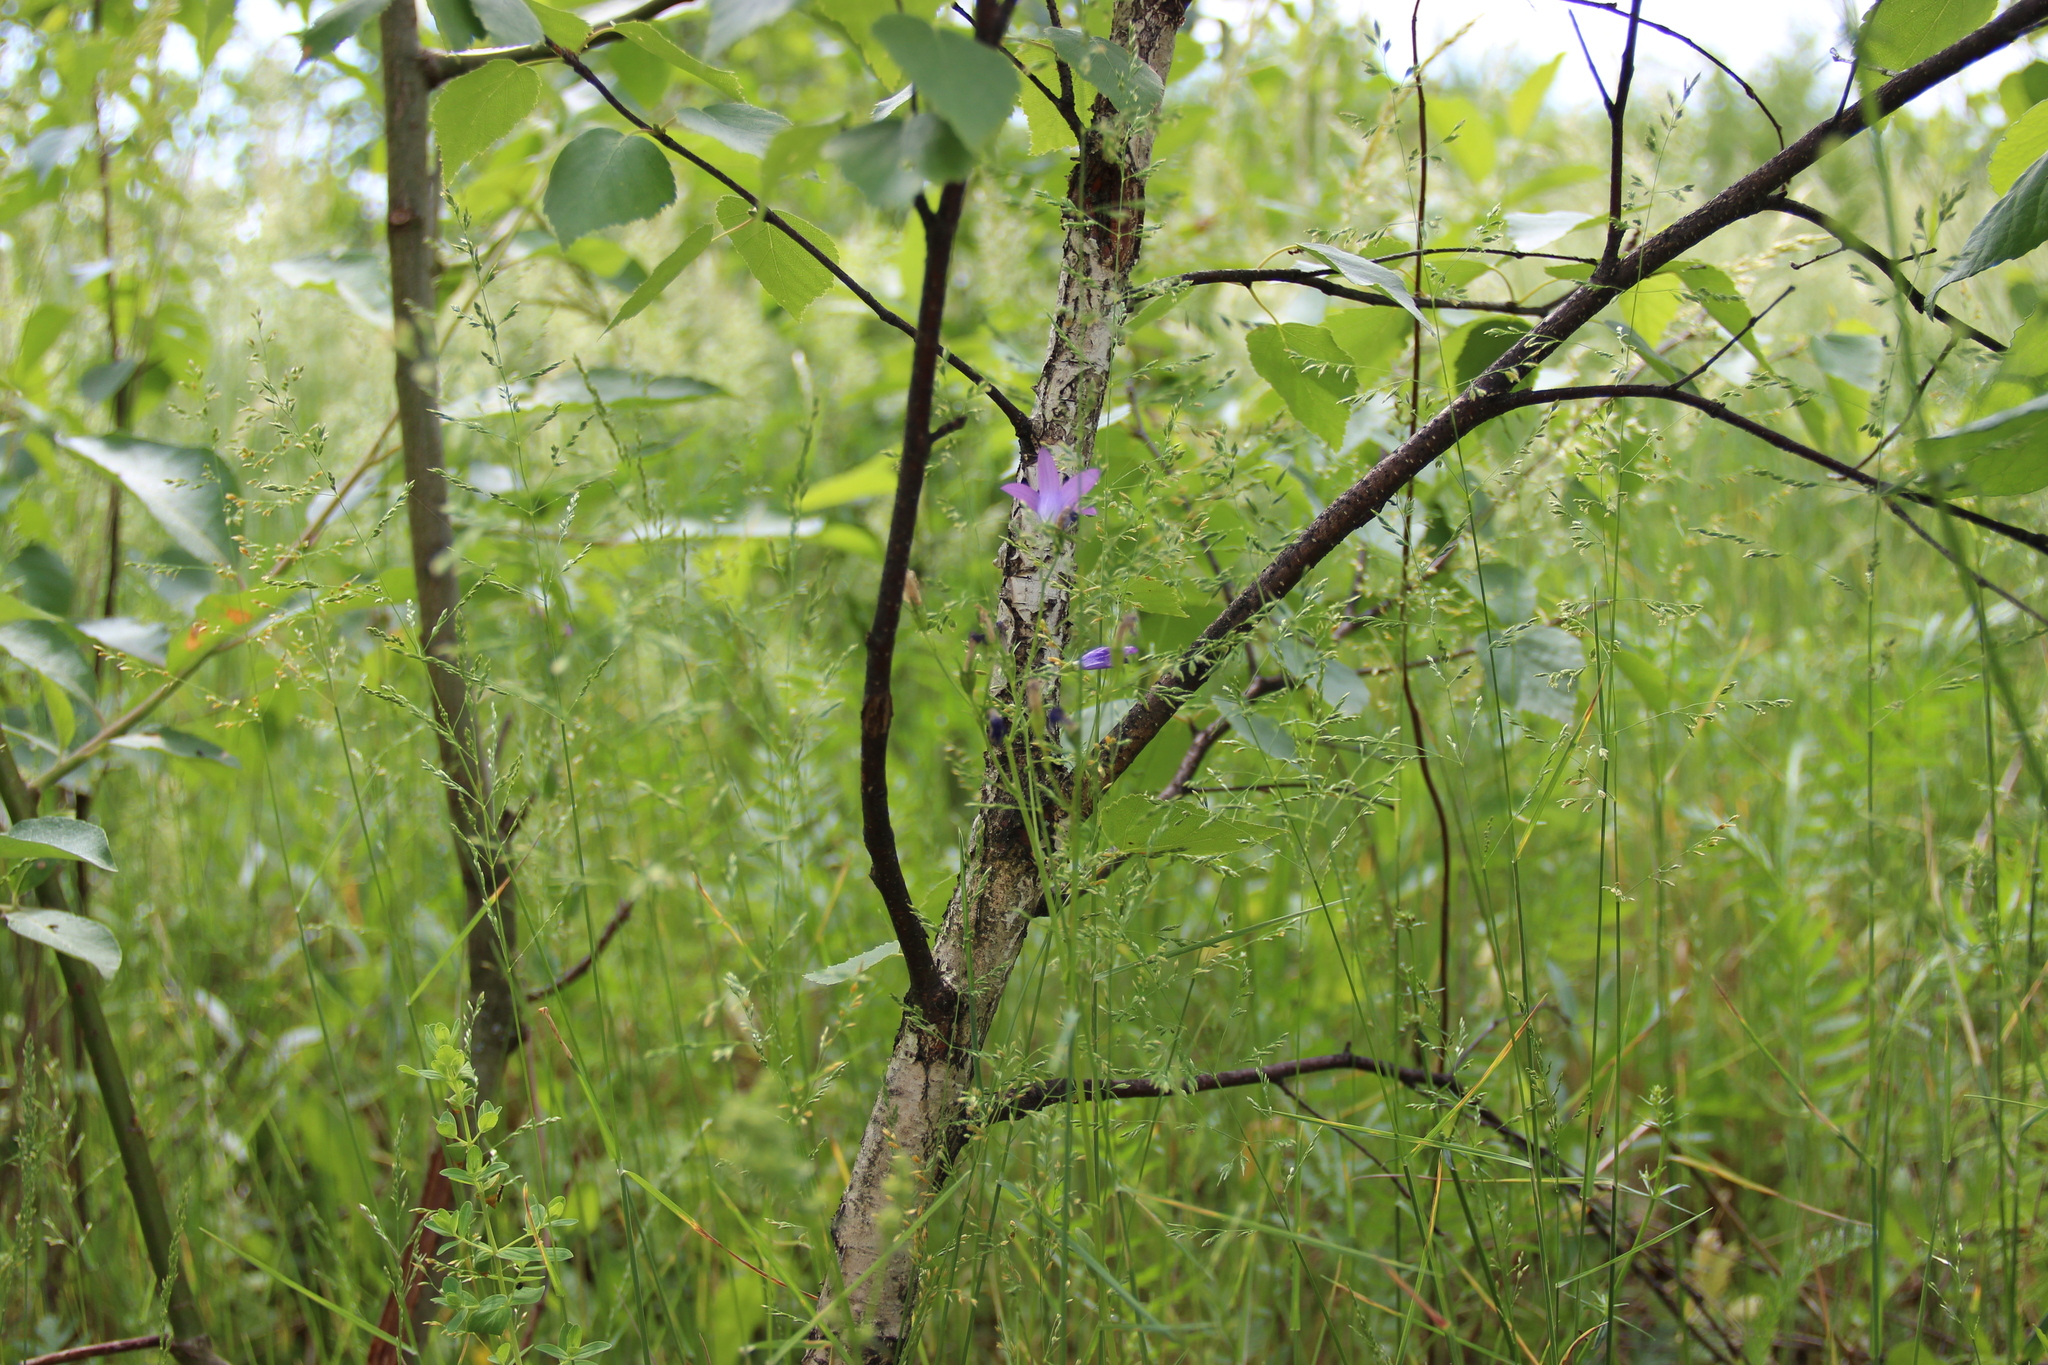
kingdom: Plantae
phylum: Tracheophyta
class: Magnoliopsida
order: Asterales
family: Campanulaceae
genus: Campanula
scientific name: Campanula patula
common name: Spreading bellflower
